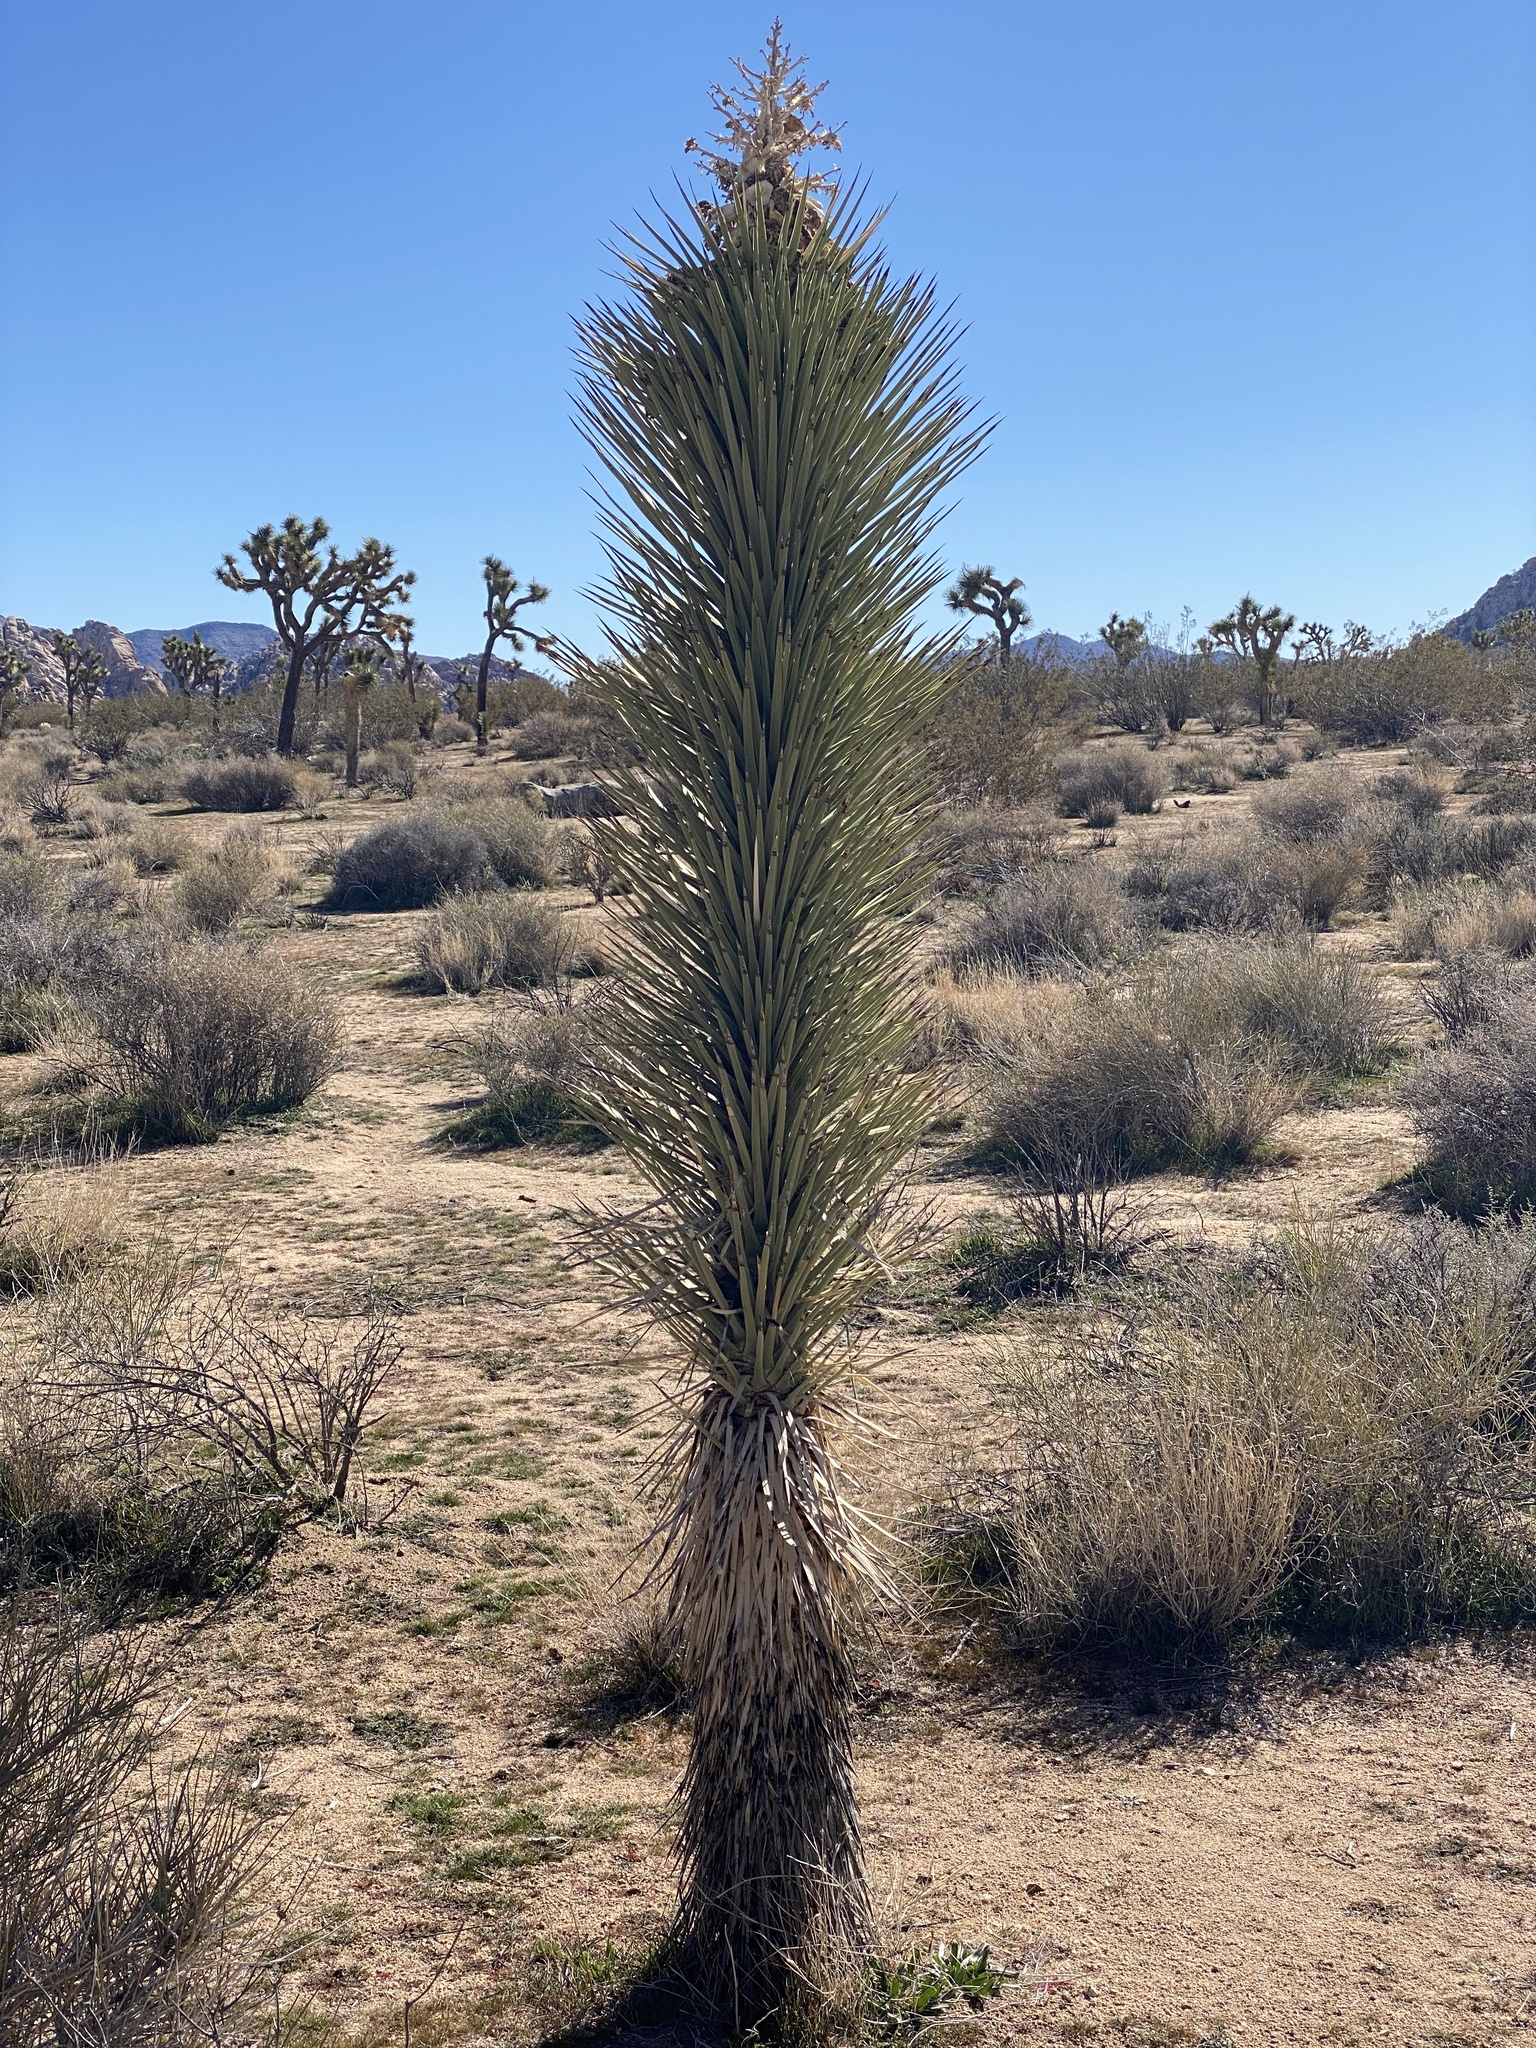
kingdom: Plantae
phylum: Tracheophyta
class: Liliopsida
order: Asparagales
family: Asparagaceae
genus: Yucca
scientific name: Yucca brevifolia
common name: Joshua tree
